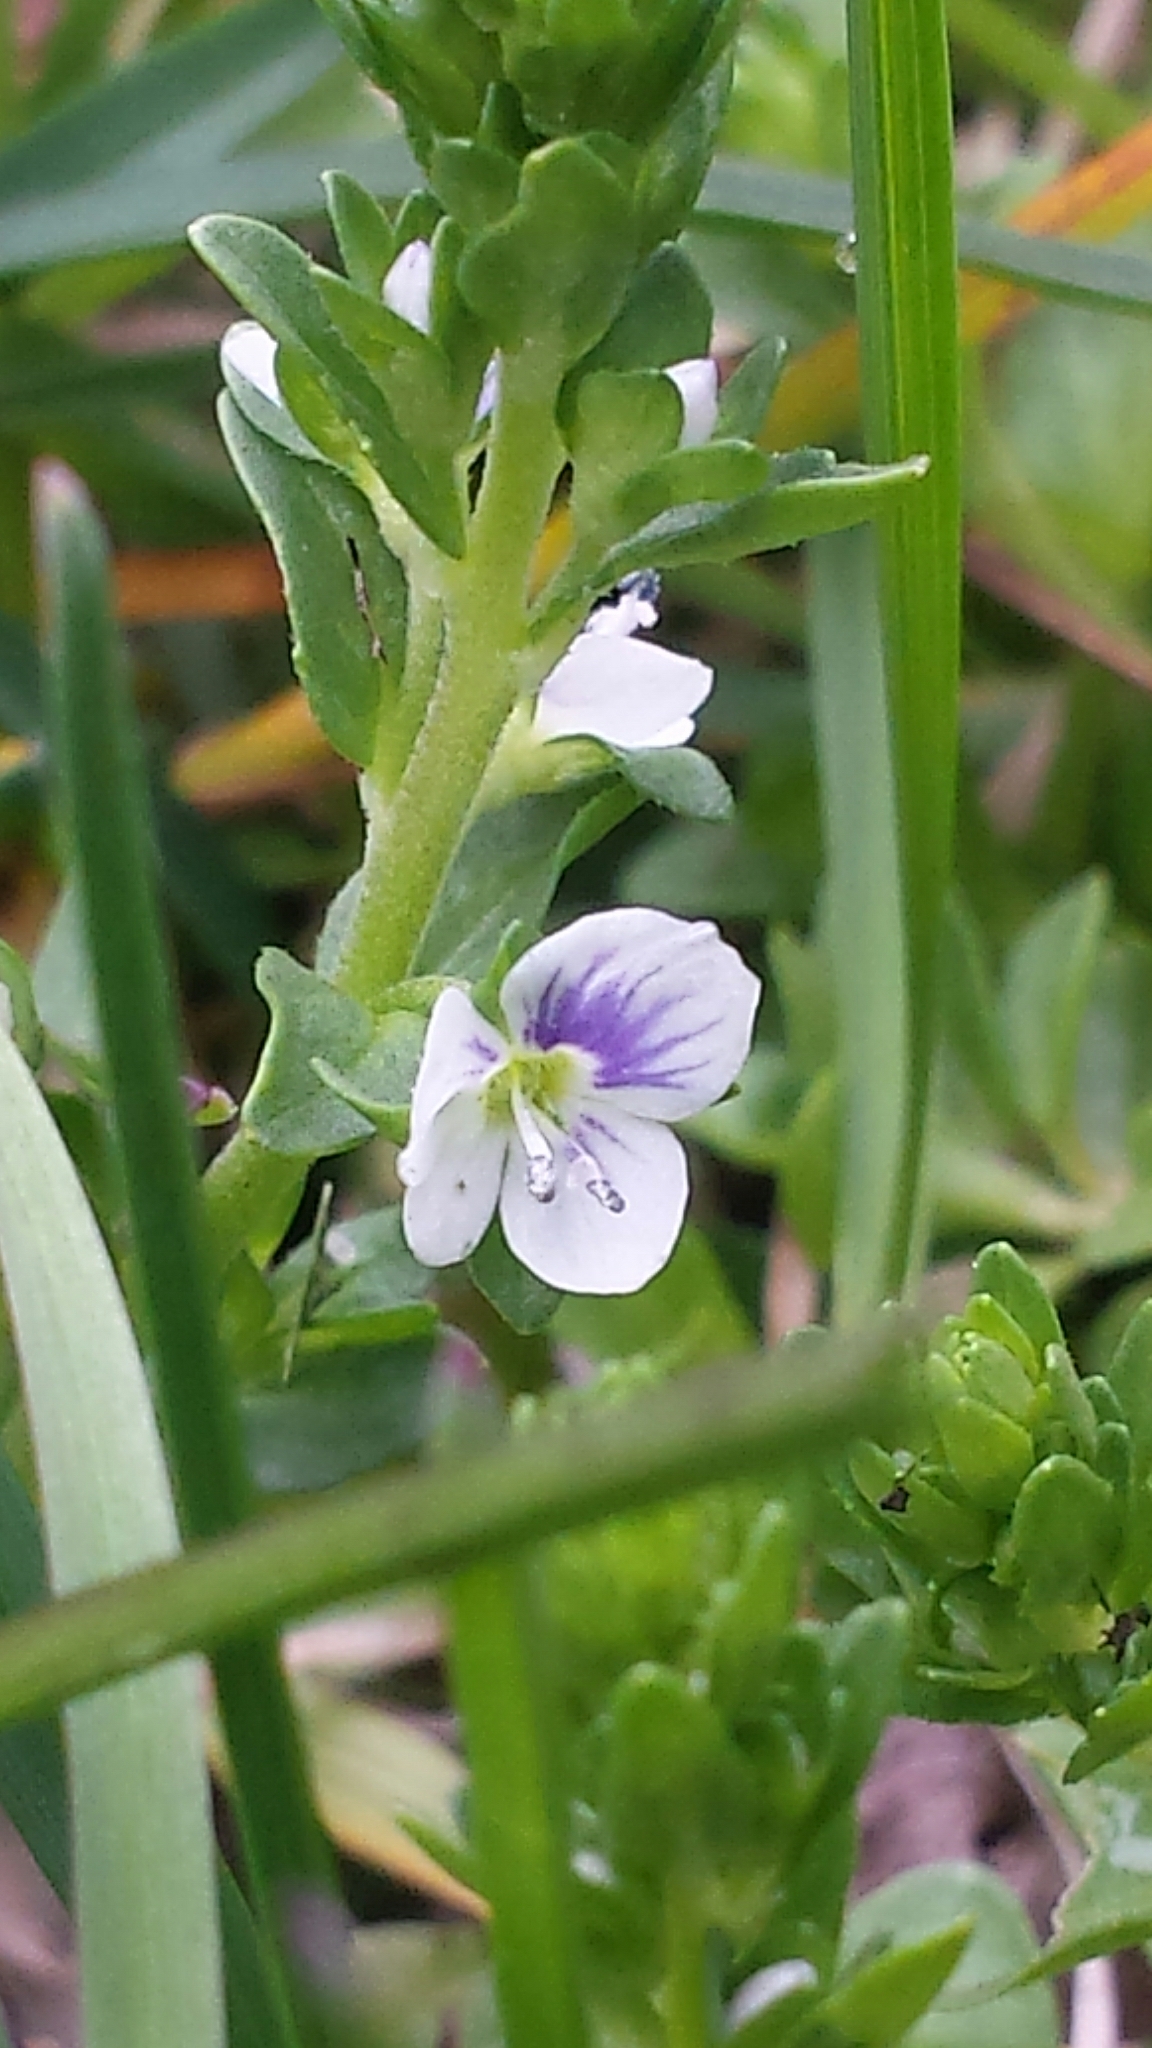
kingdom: Plantae
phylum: Tracheophyta
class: Magnoliopsida
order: Lamiales
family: Plantaginaceae
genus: Veronica
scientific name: Veronica serpyllifolia
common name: Thyme-leaved speedwell
